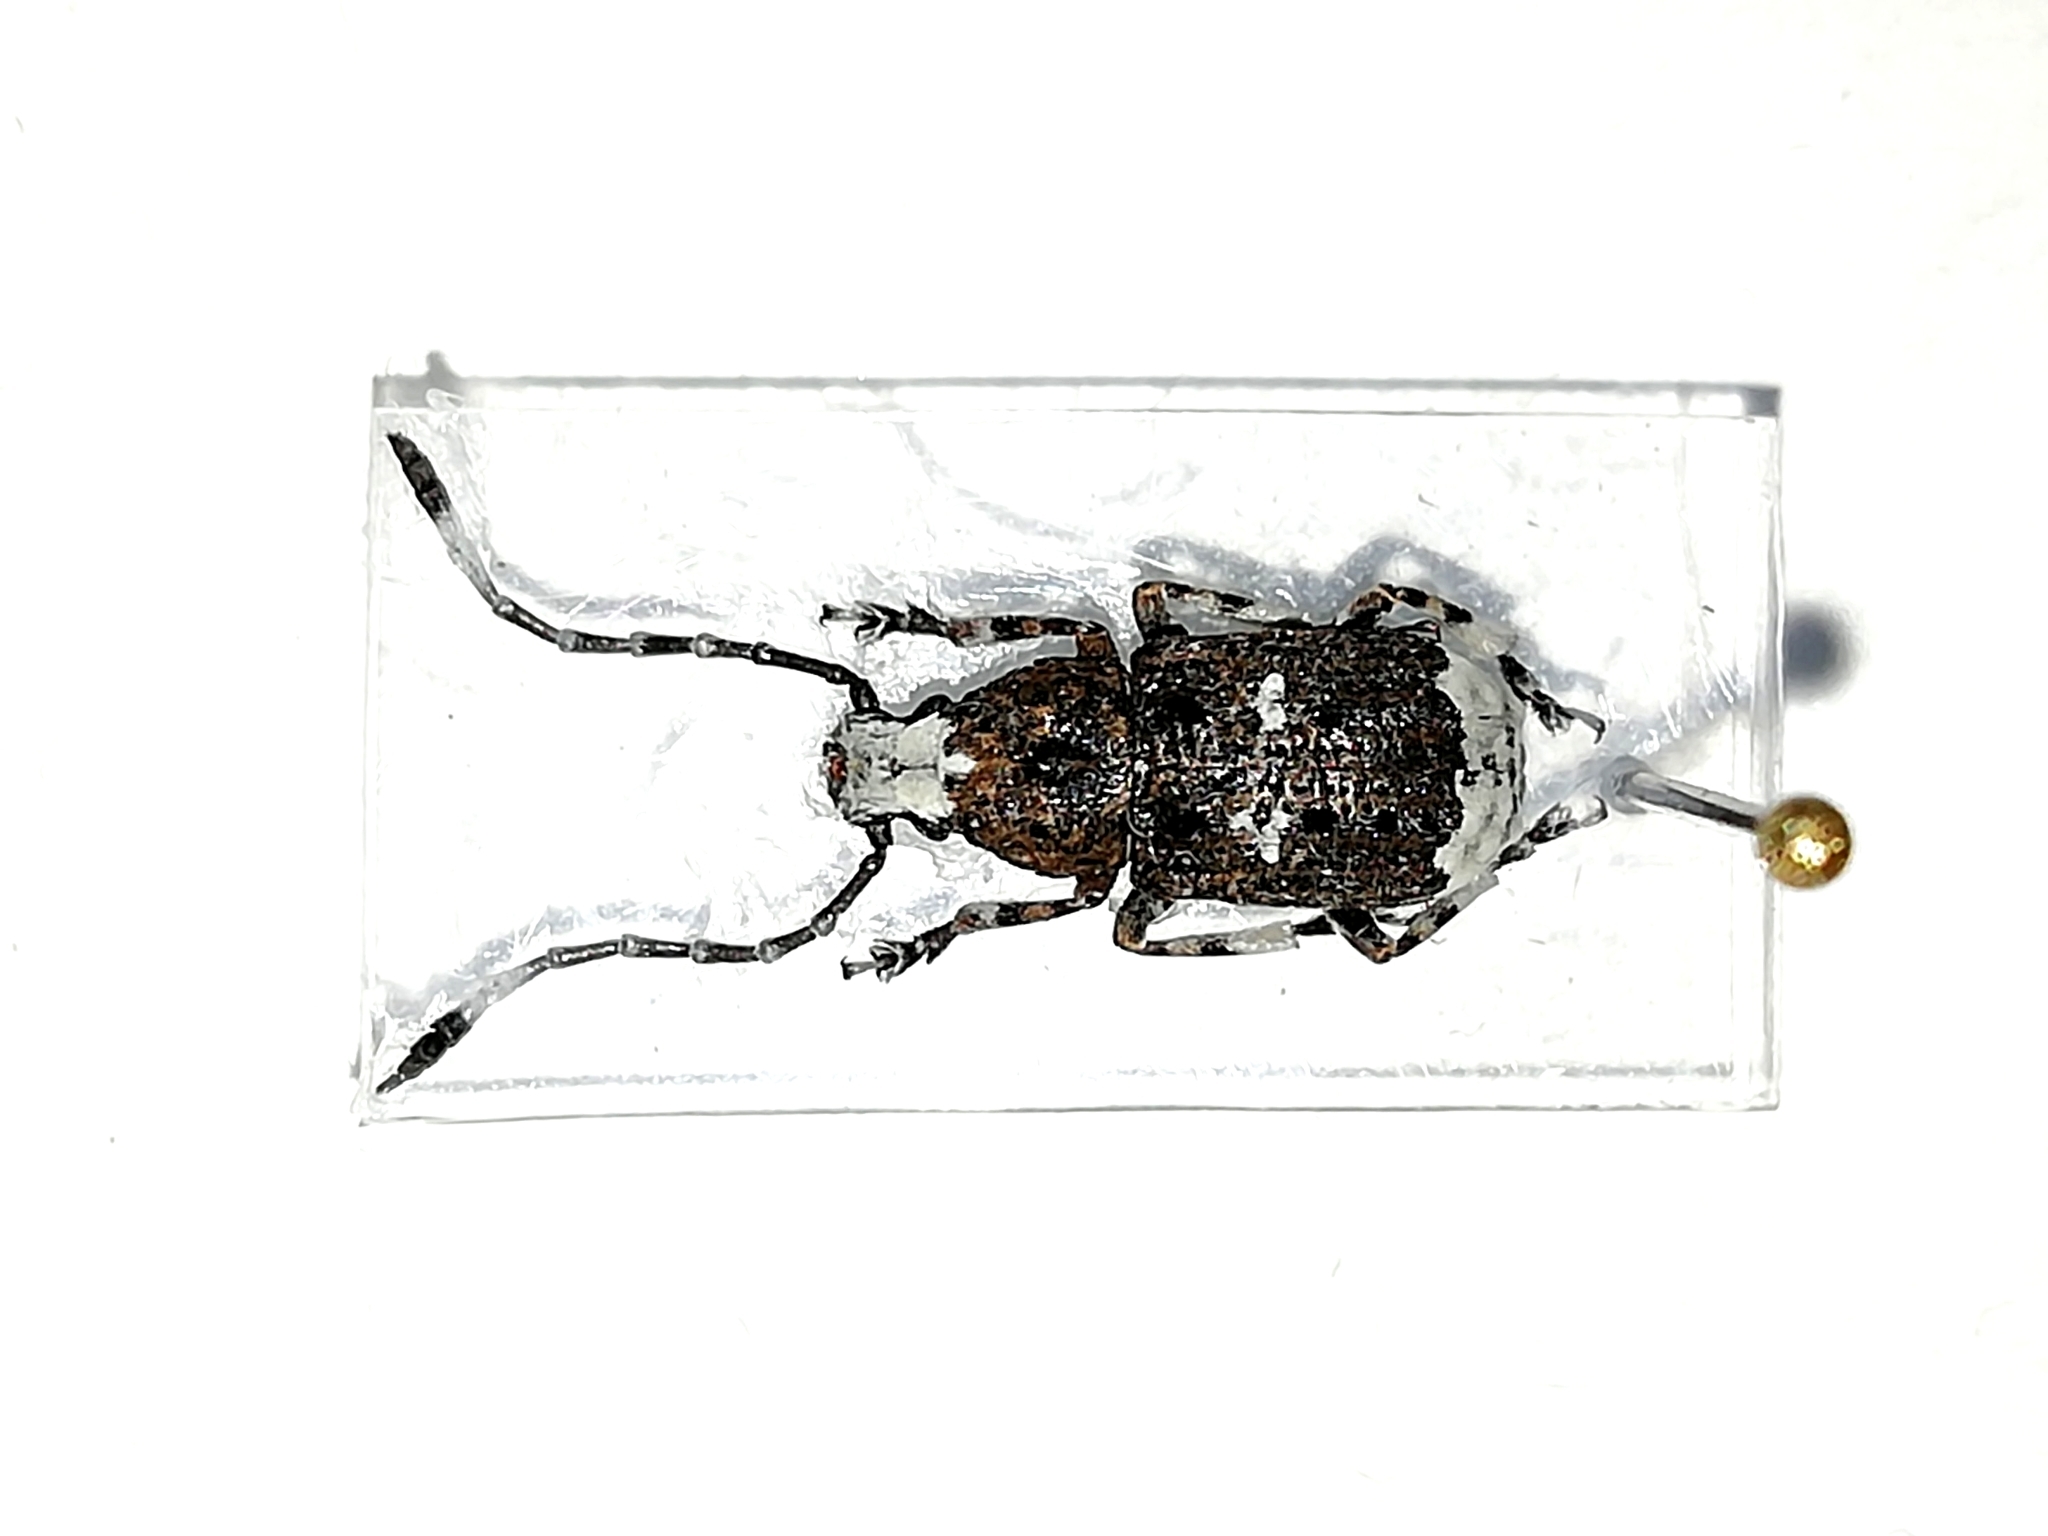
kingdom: Animalia
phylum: Arthropoda
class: Insecta
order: Coleoptera
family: Anthribidae
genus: Platystomos
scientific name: Platystomos albinus
